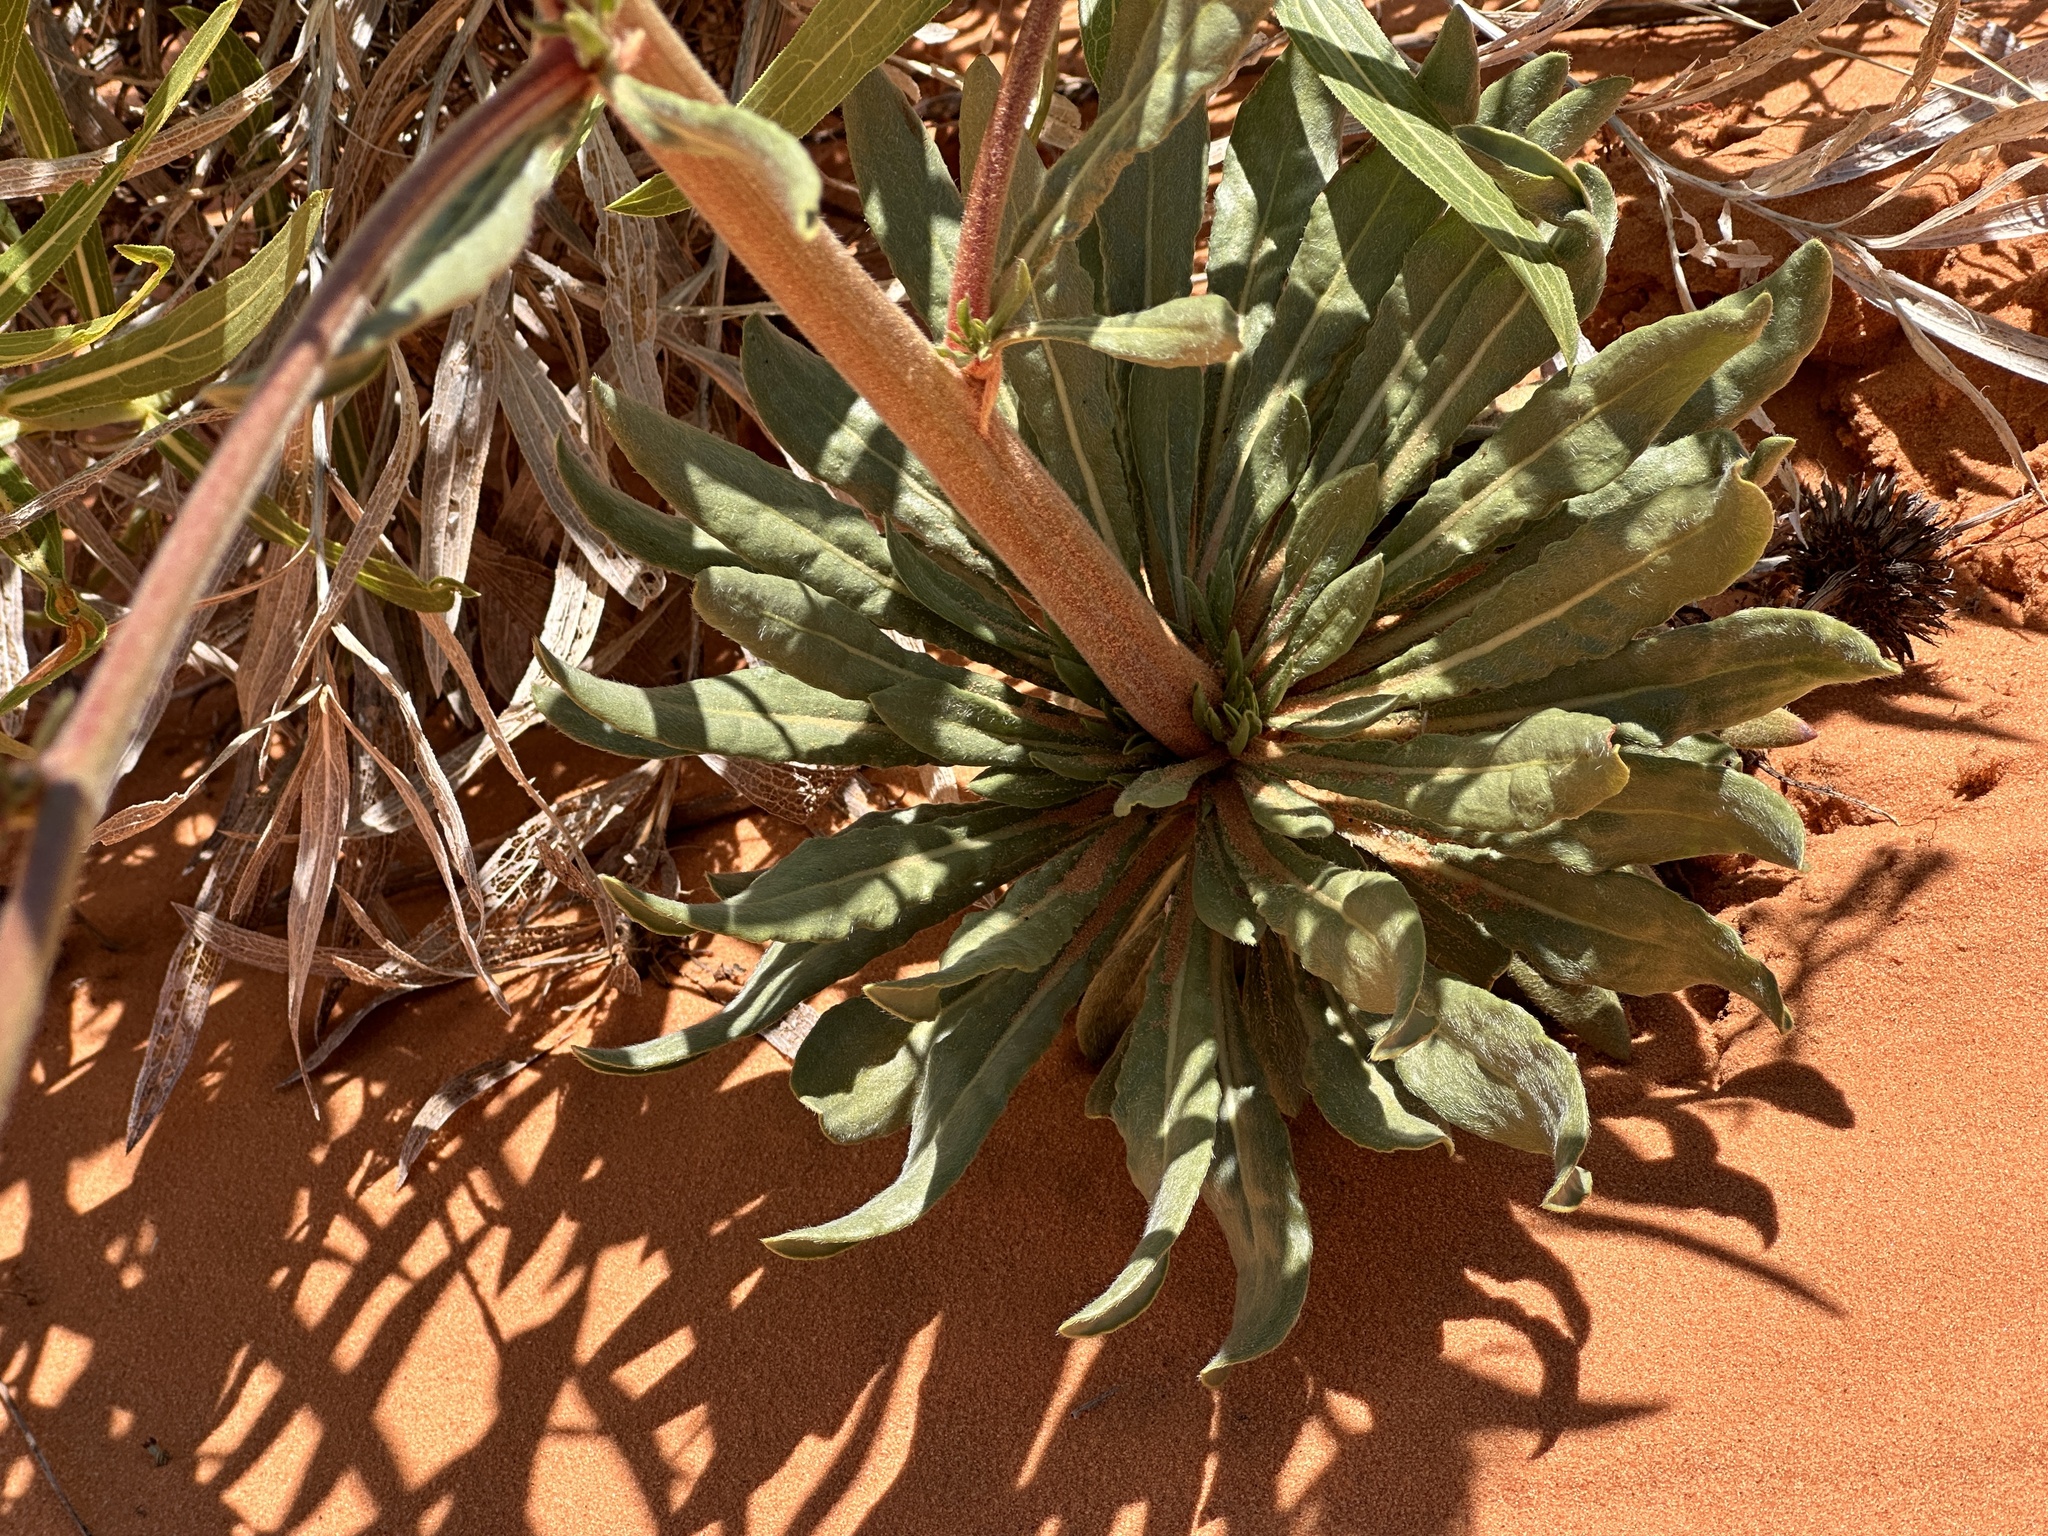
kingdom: Plantae
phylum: Tracheophyta
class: Magnoliopsida
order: Caryophyllales
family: Polygonaceae
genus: Eriogonum
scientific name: Eriogonum alatum
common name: Winged eriogonum
